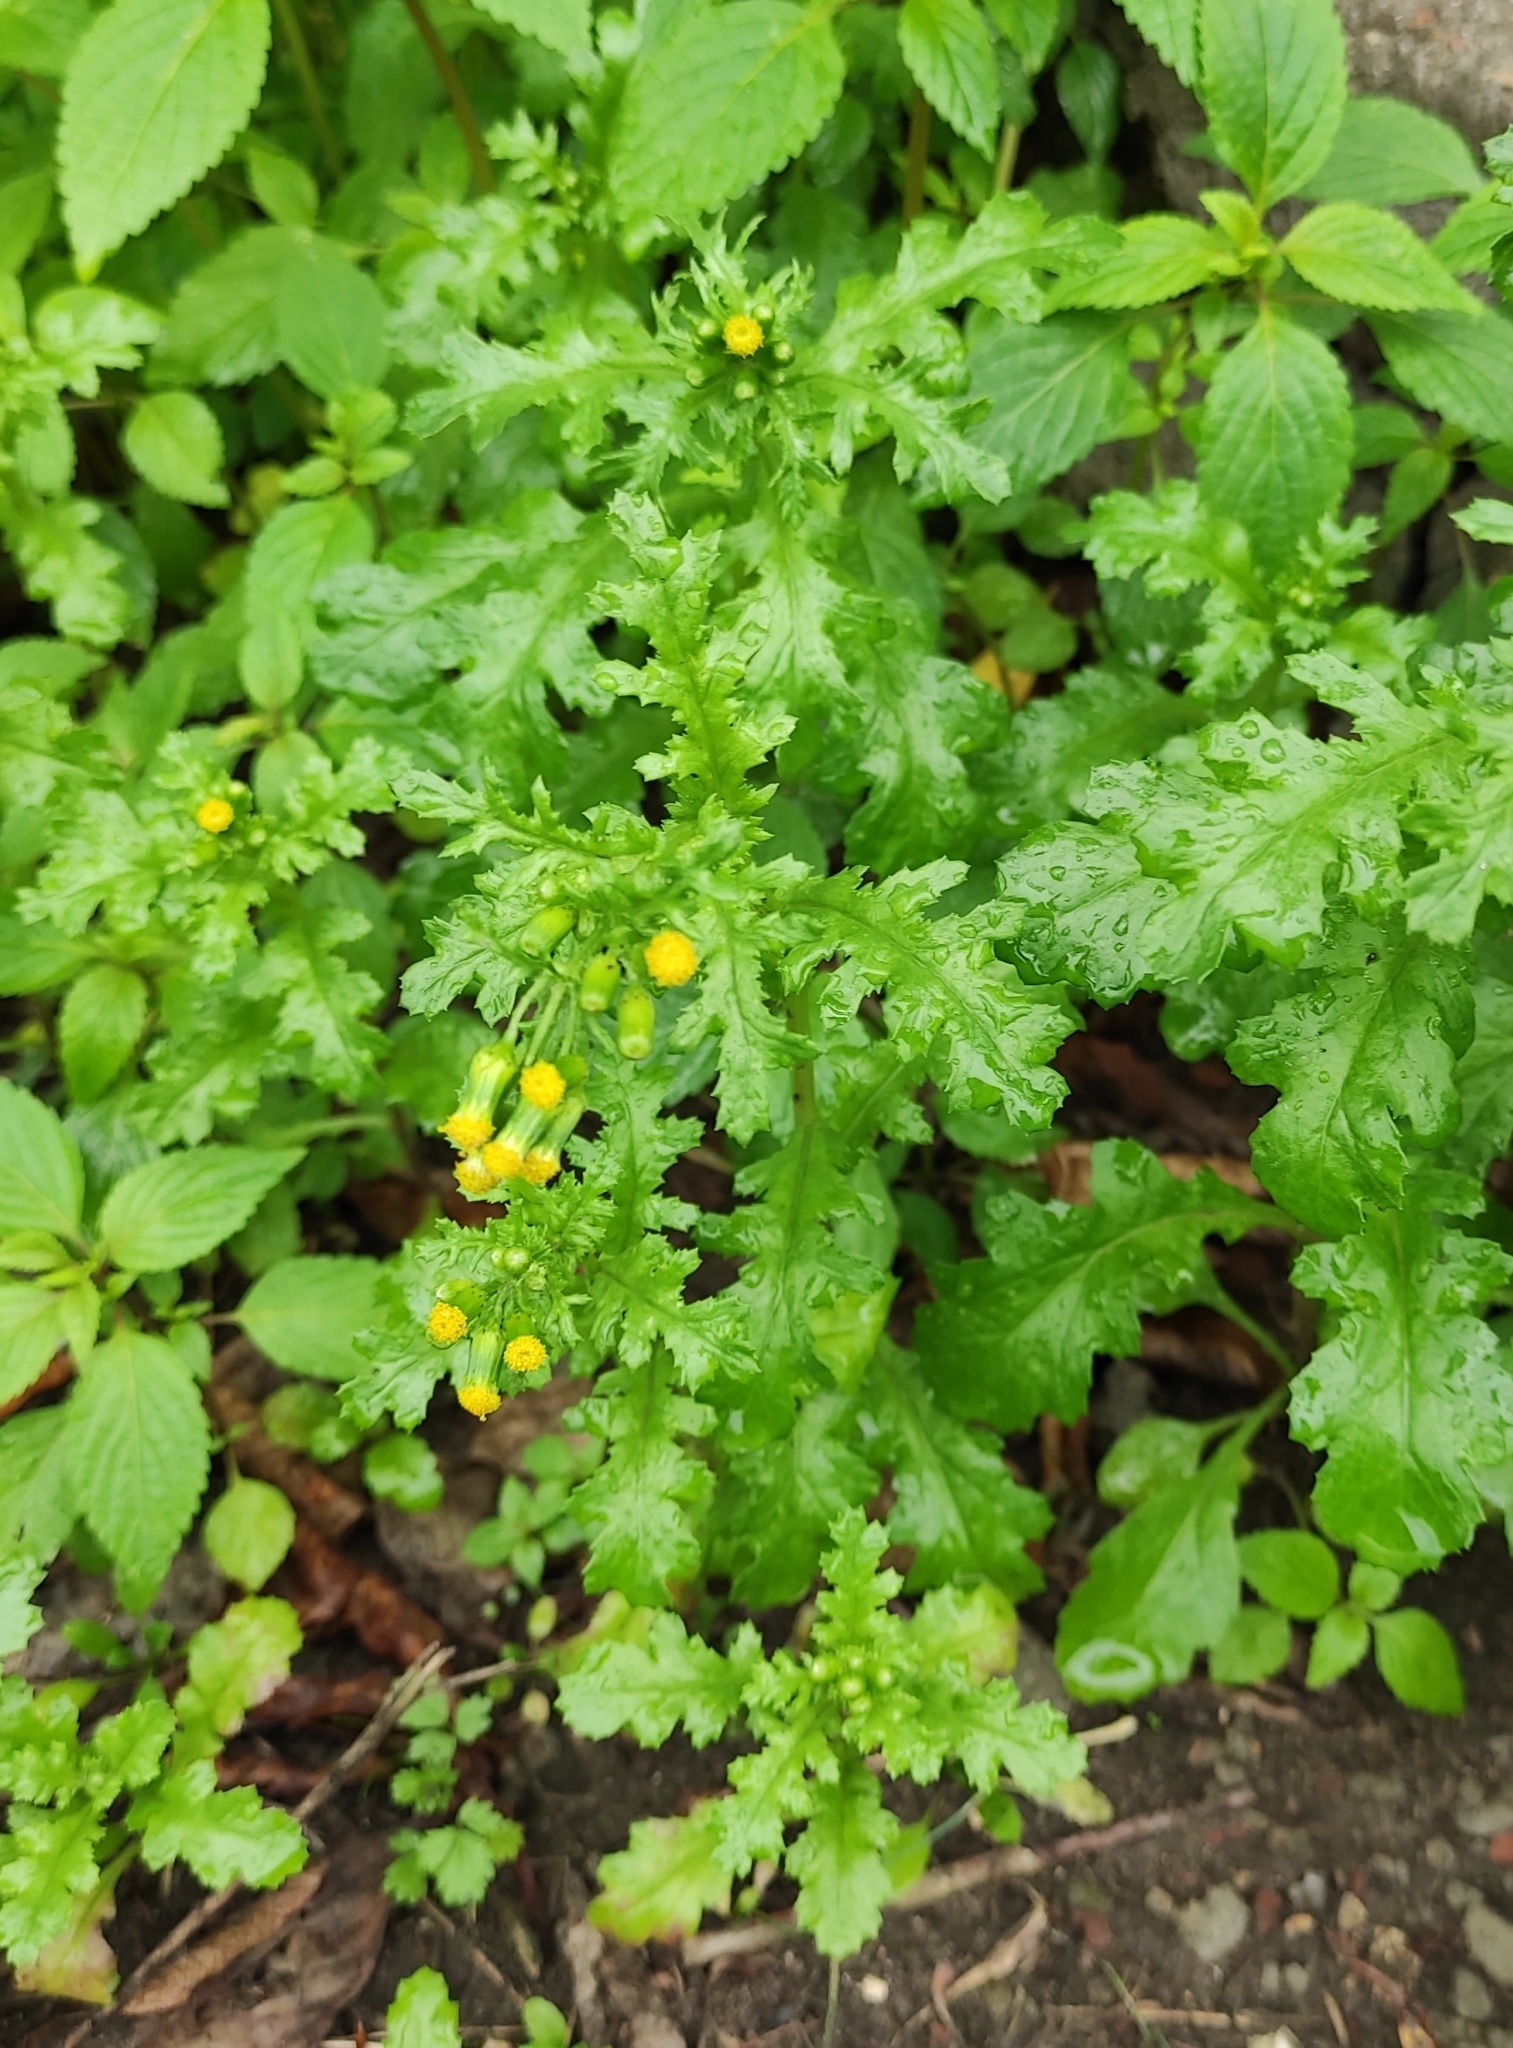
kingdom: Plantae
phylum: Tracheophyta
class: Magnoliopsida
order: Asterales
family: Asteraceae
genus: Senecio
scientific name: Senecio vulgaris
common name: Old-man-in-the-spring
